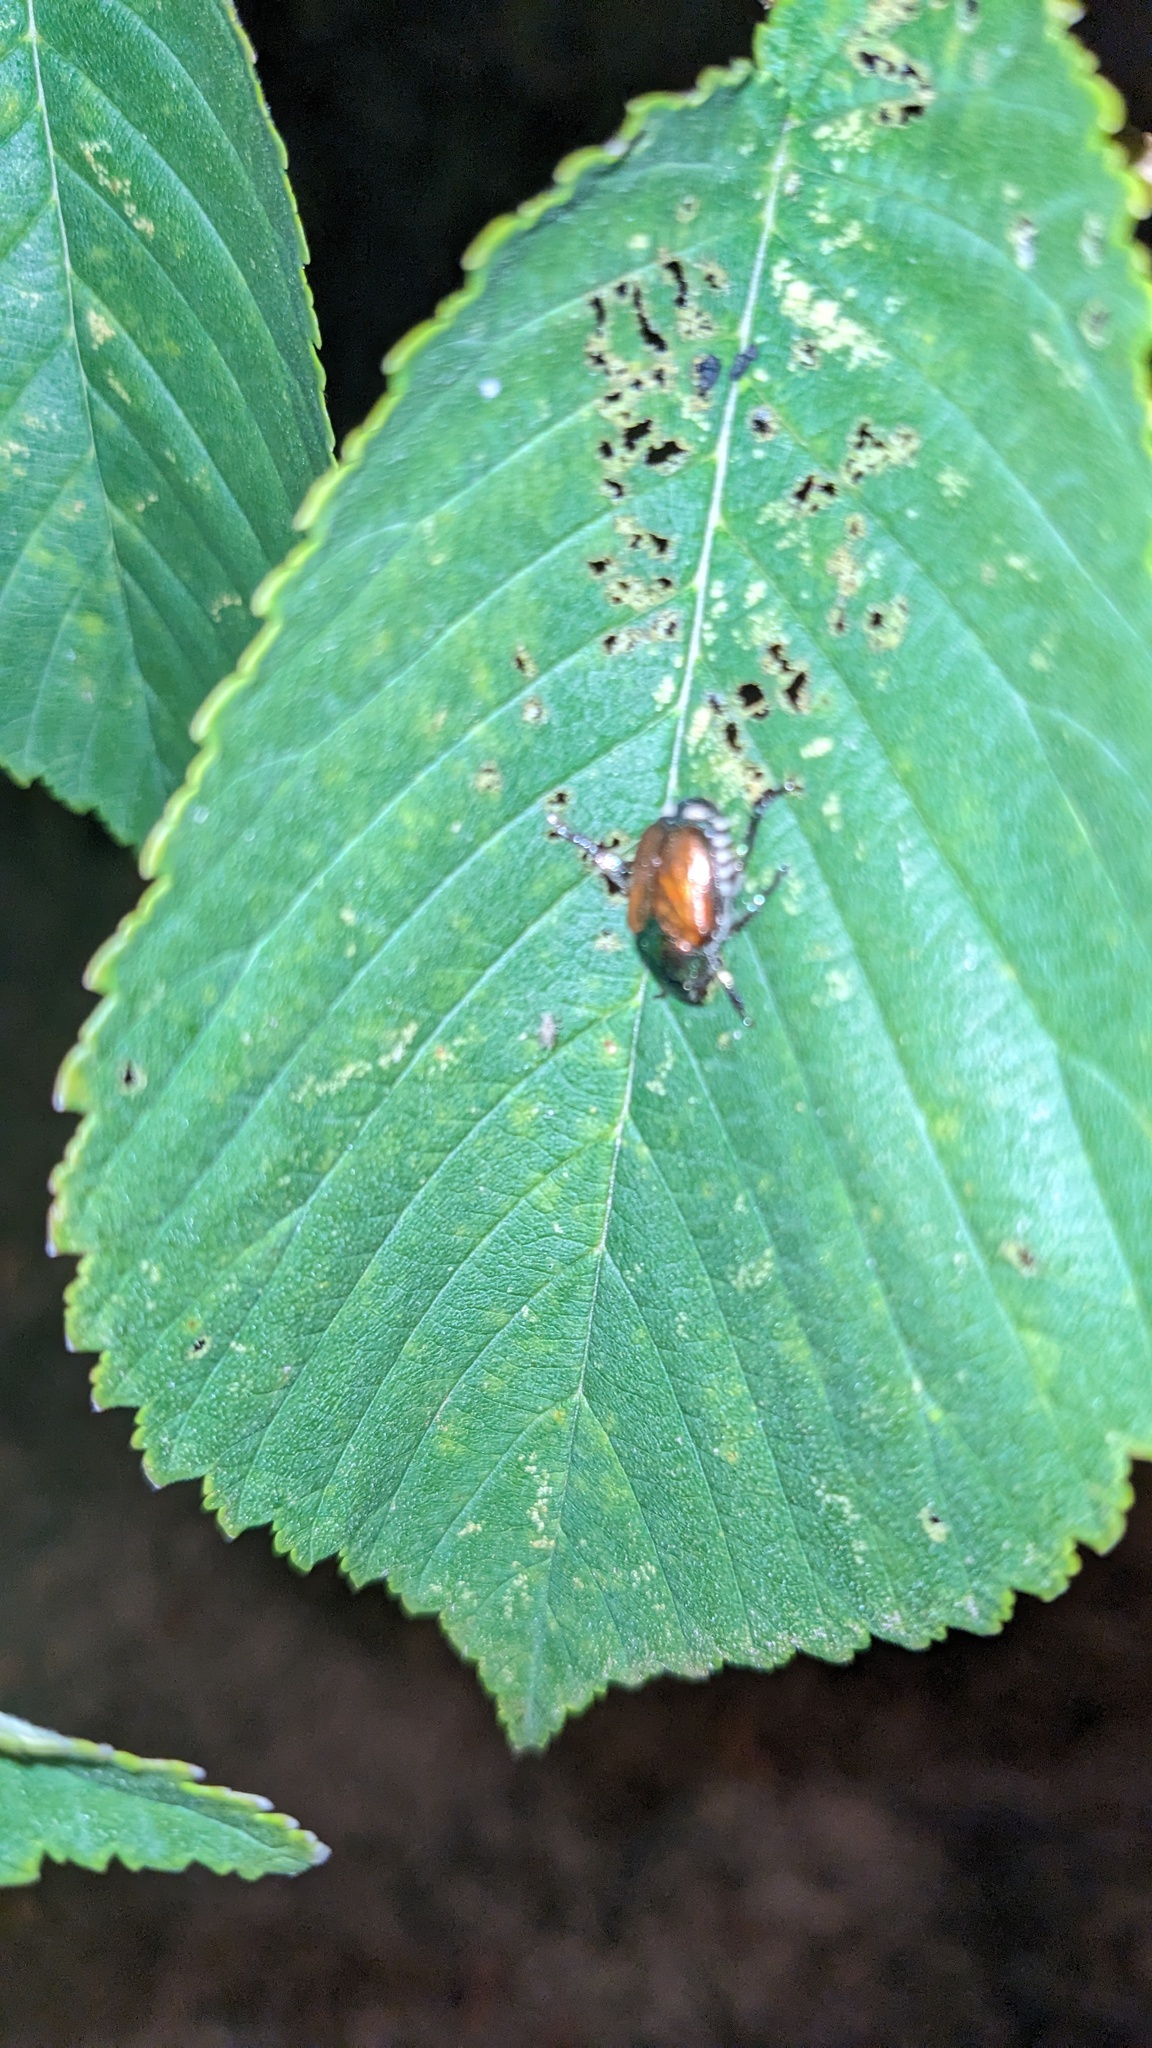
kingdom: Animalia
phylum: Arthropoda
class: Insecta
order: Coleoptera
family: Scarabaeidae
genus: Popillia
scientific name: Popillia japonica
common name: Japanese beetle
